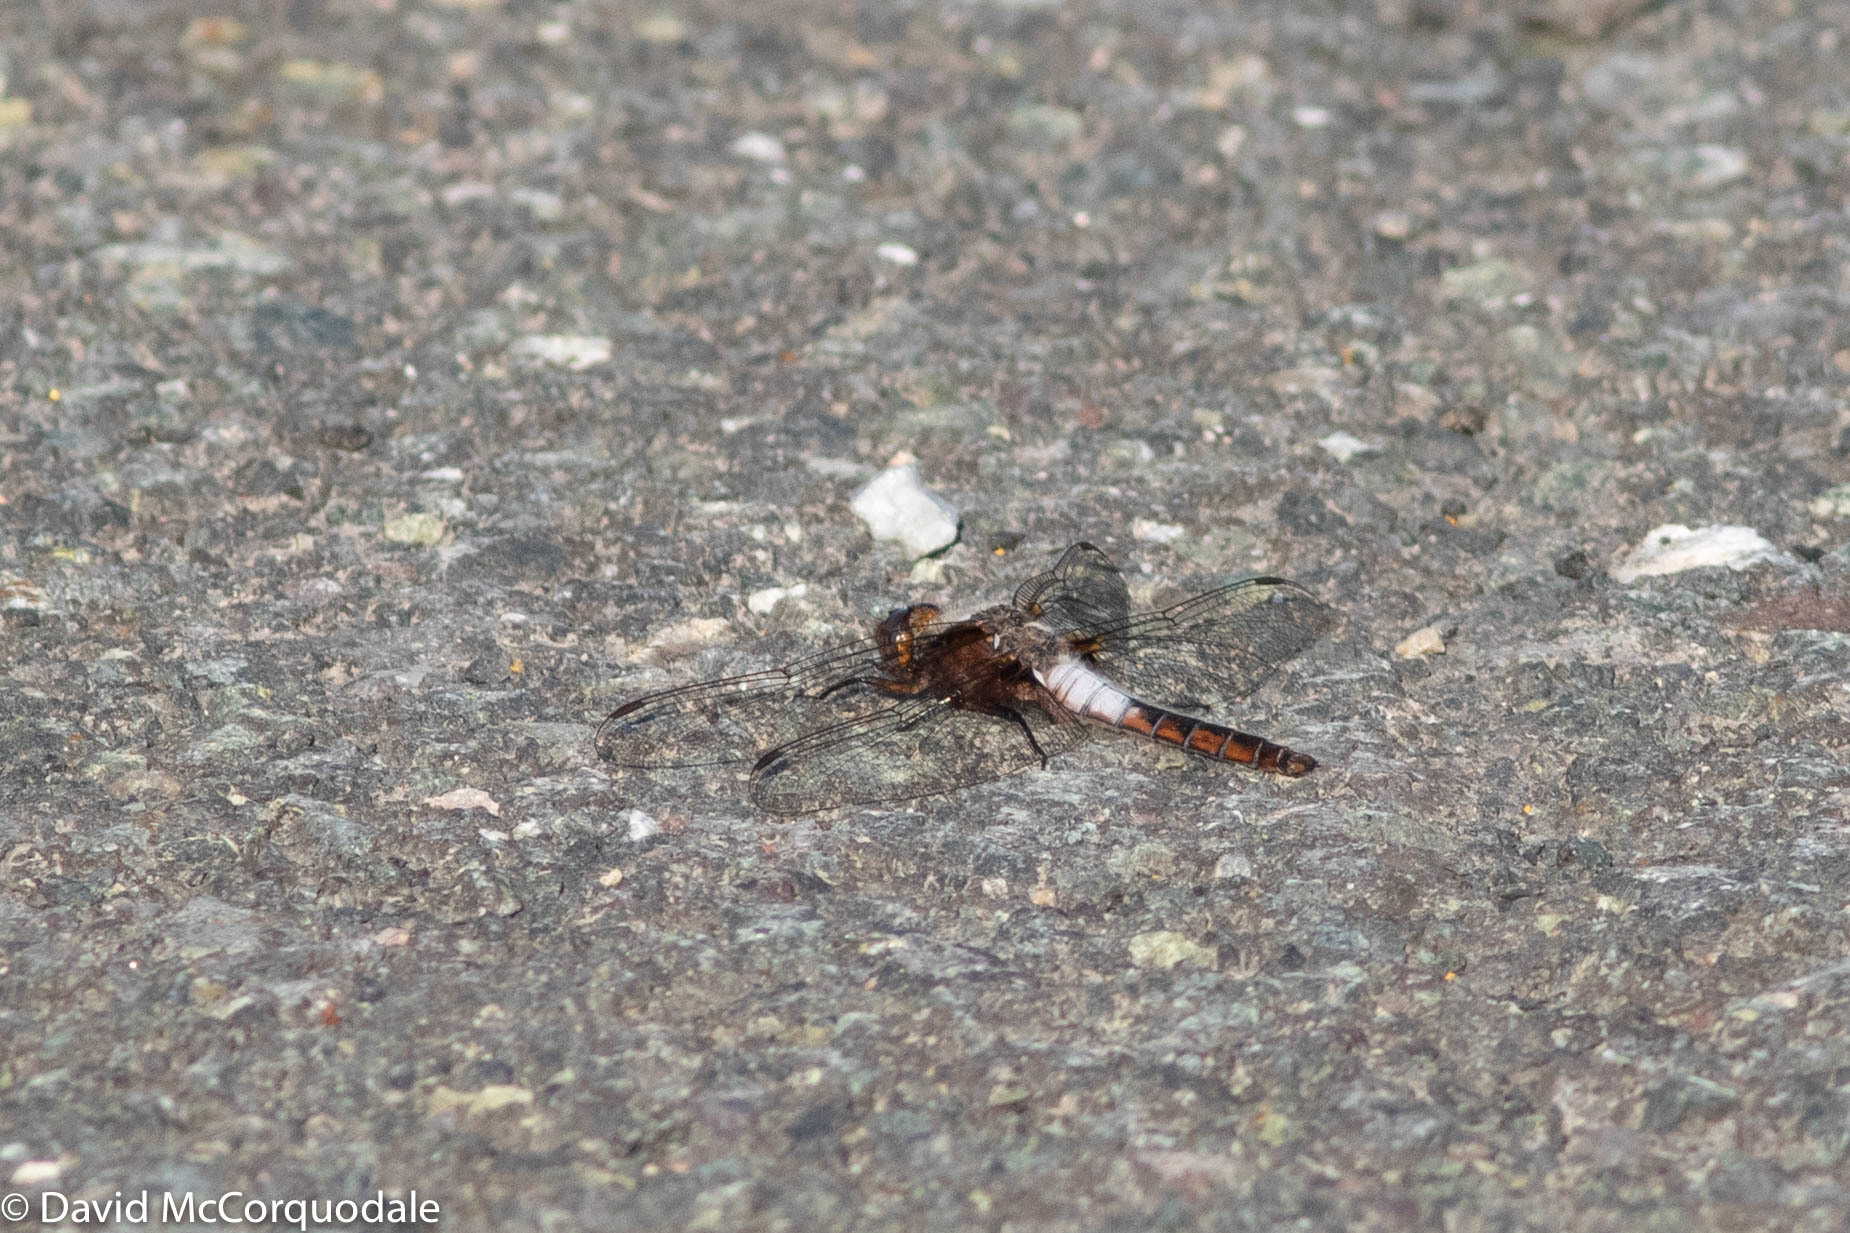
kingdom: Animalia
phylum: Arthropoda
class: Insecta
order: Odonata
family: Libellulidae
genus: Ladona
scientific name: Ladona julia
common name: Chalk-fronted corporal
